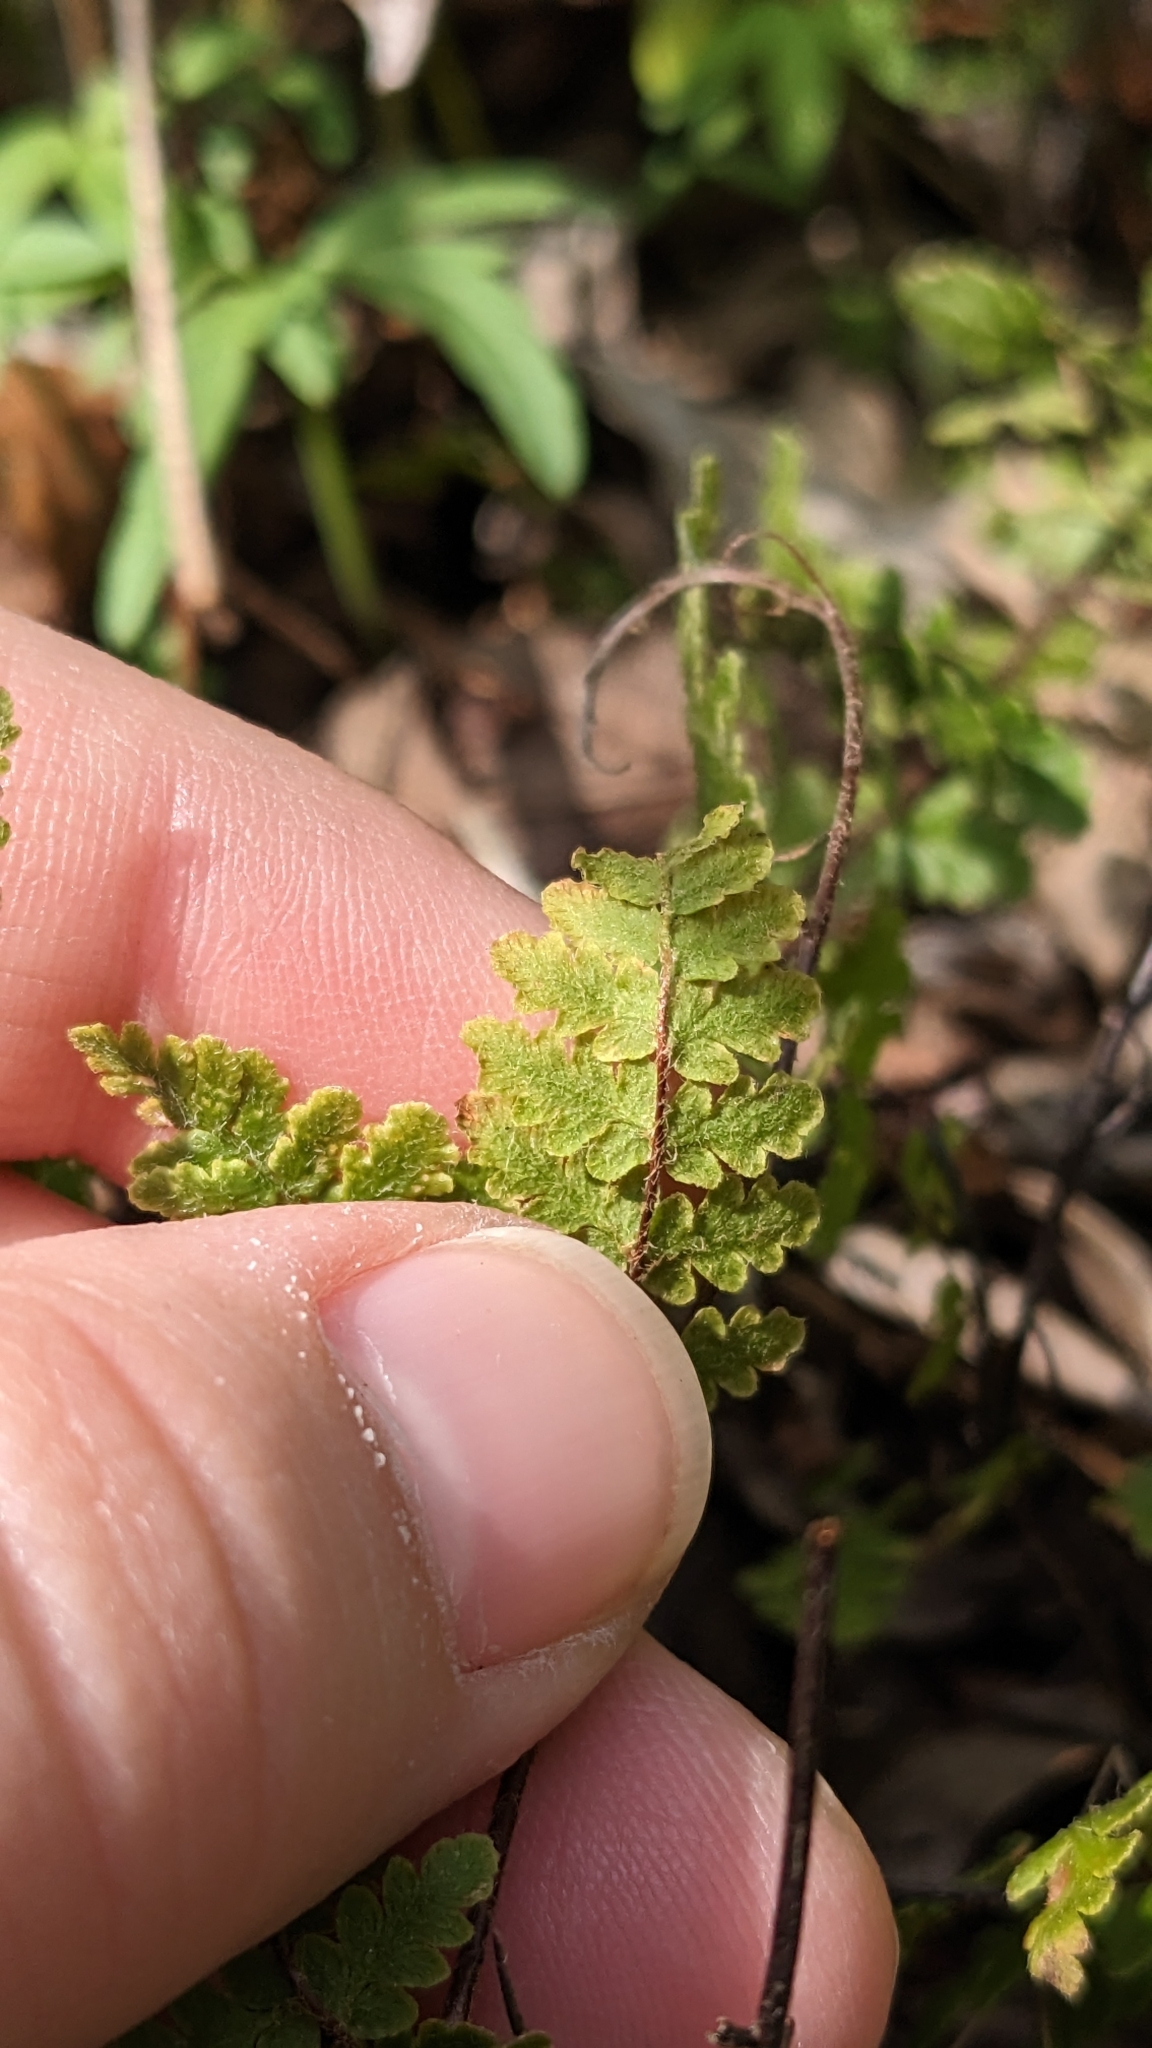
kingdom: Plantae
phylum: Tracheophyta
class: Polypodiopsida
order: Polypodiales
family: Pteridaceae
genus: Myriopteris
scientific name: Myriopteris lanosa
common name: Hairy lip fern
